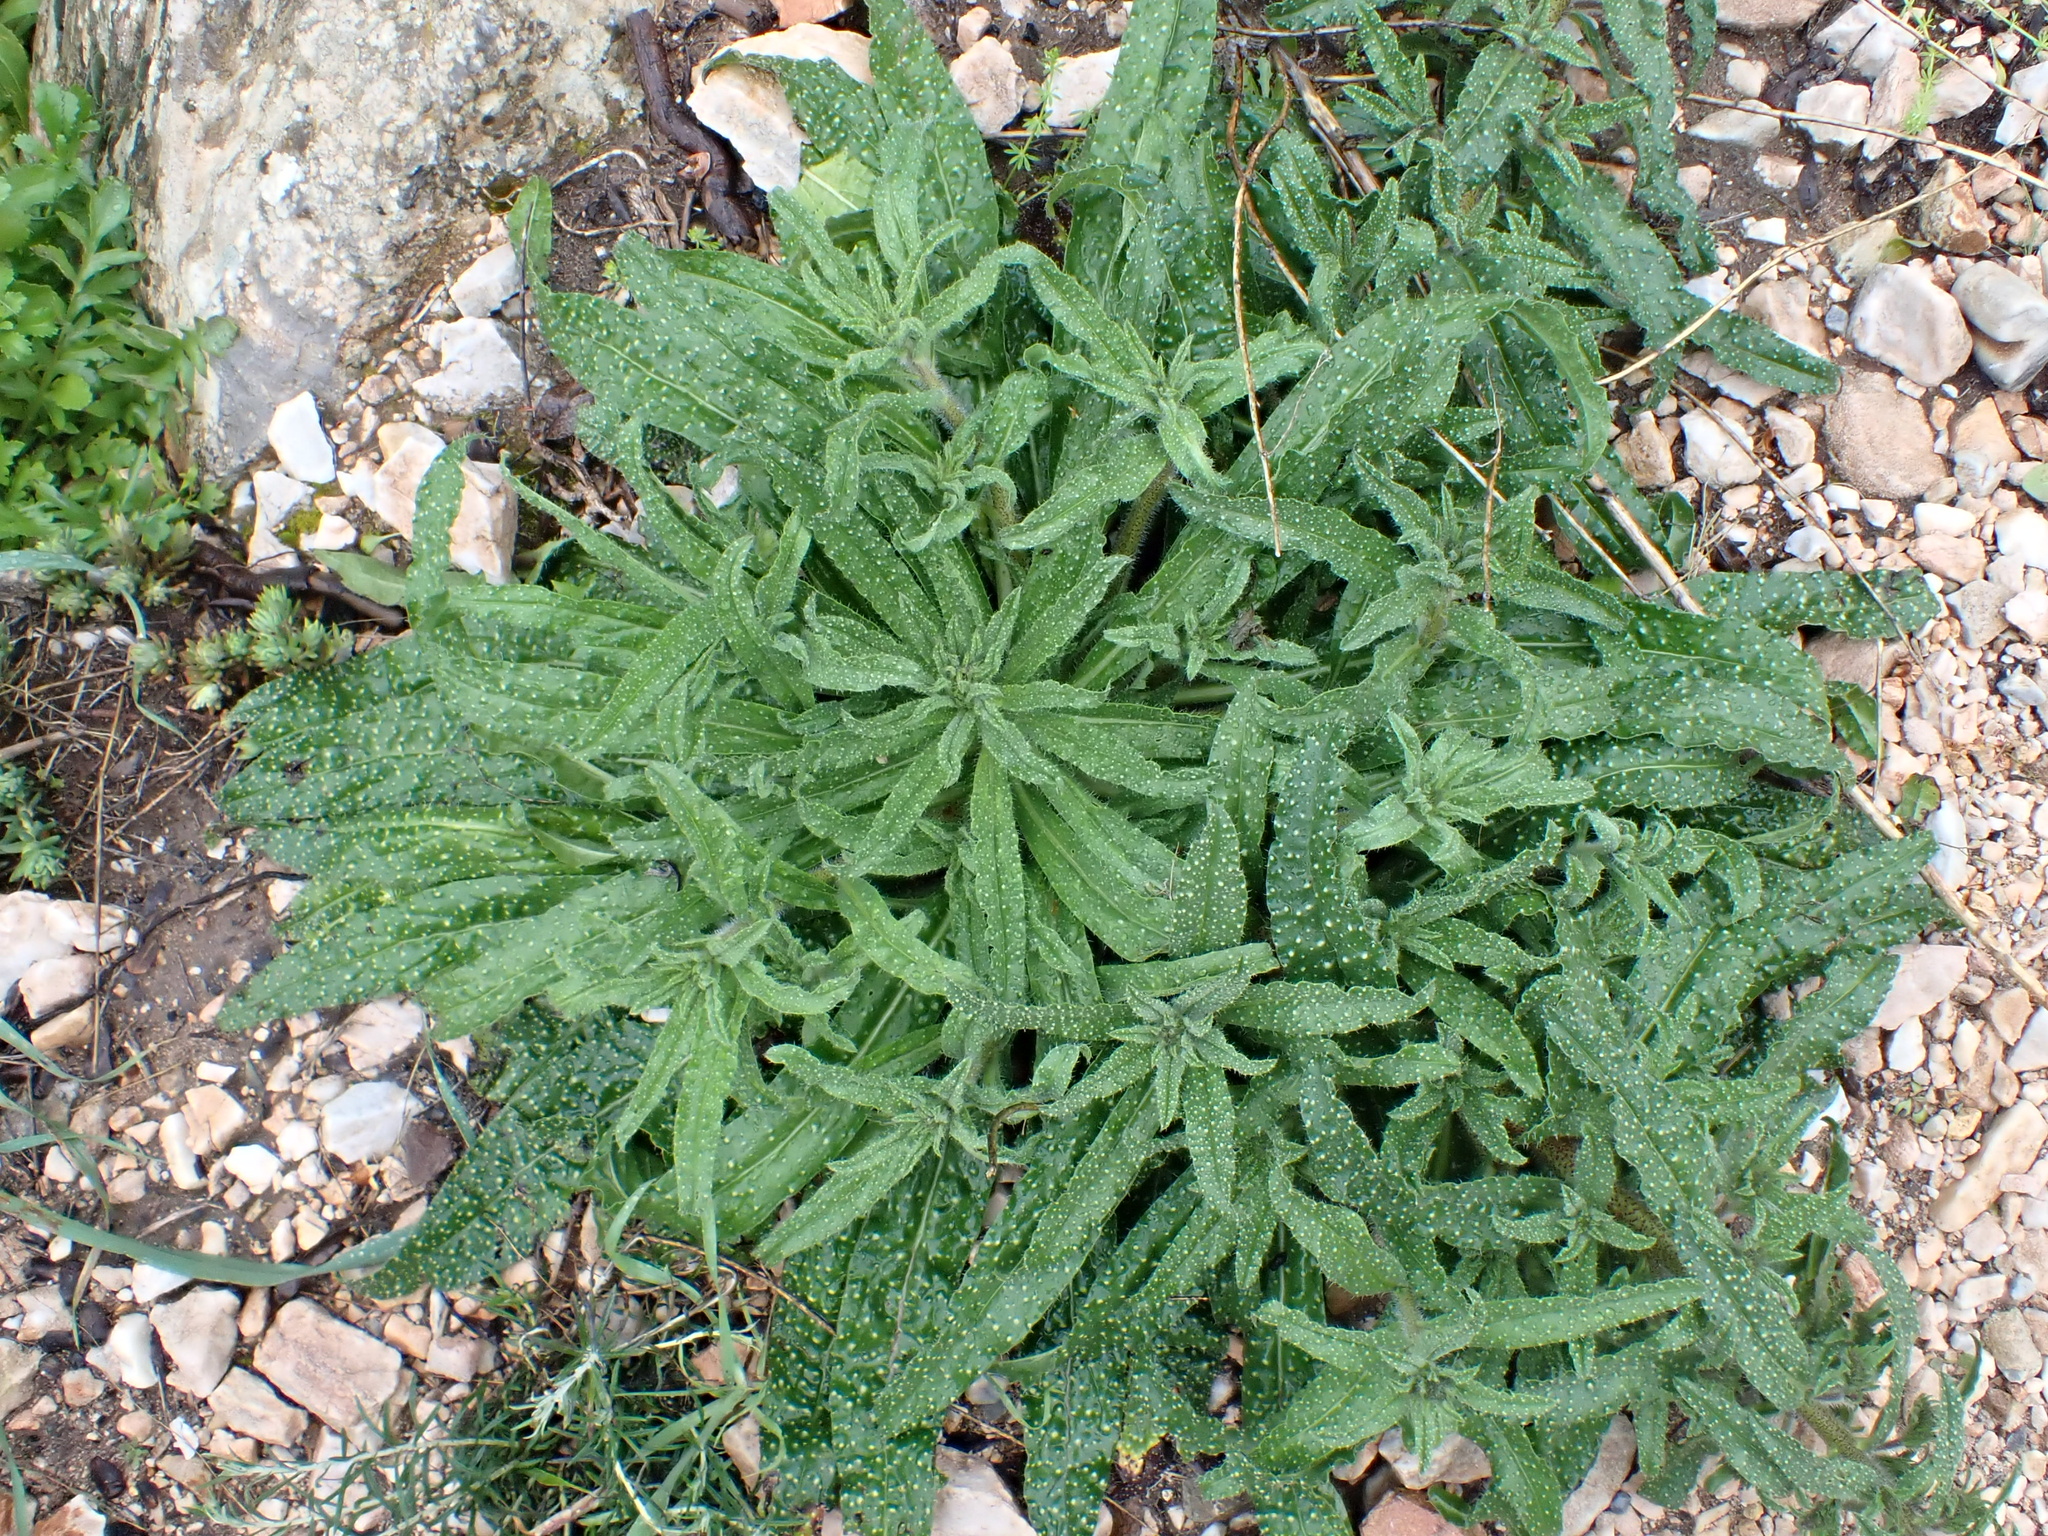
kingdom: Plantae
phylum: Tracheophyta
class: Magnoliopsida
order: Boraginales
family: Boraginaceae
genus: Echium
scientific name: Echium creticum
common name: Cretan viper's bugloss
